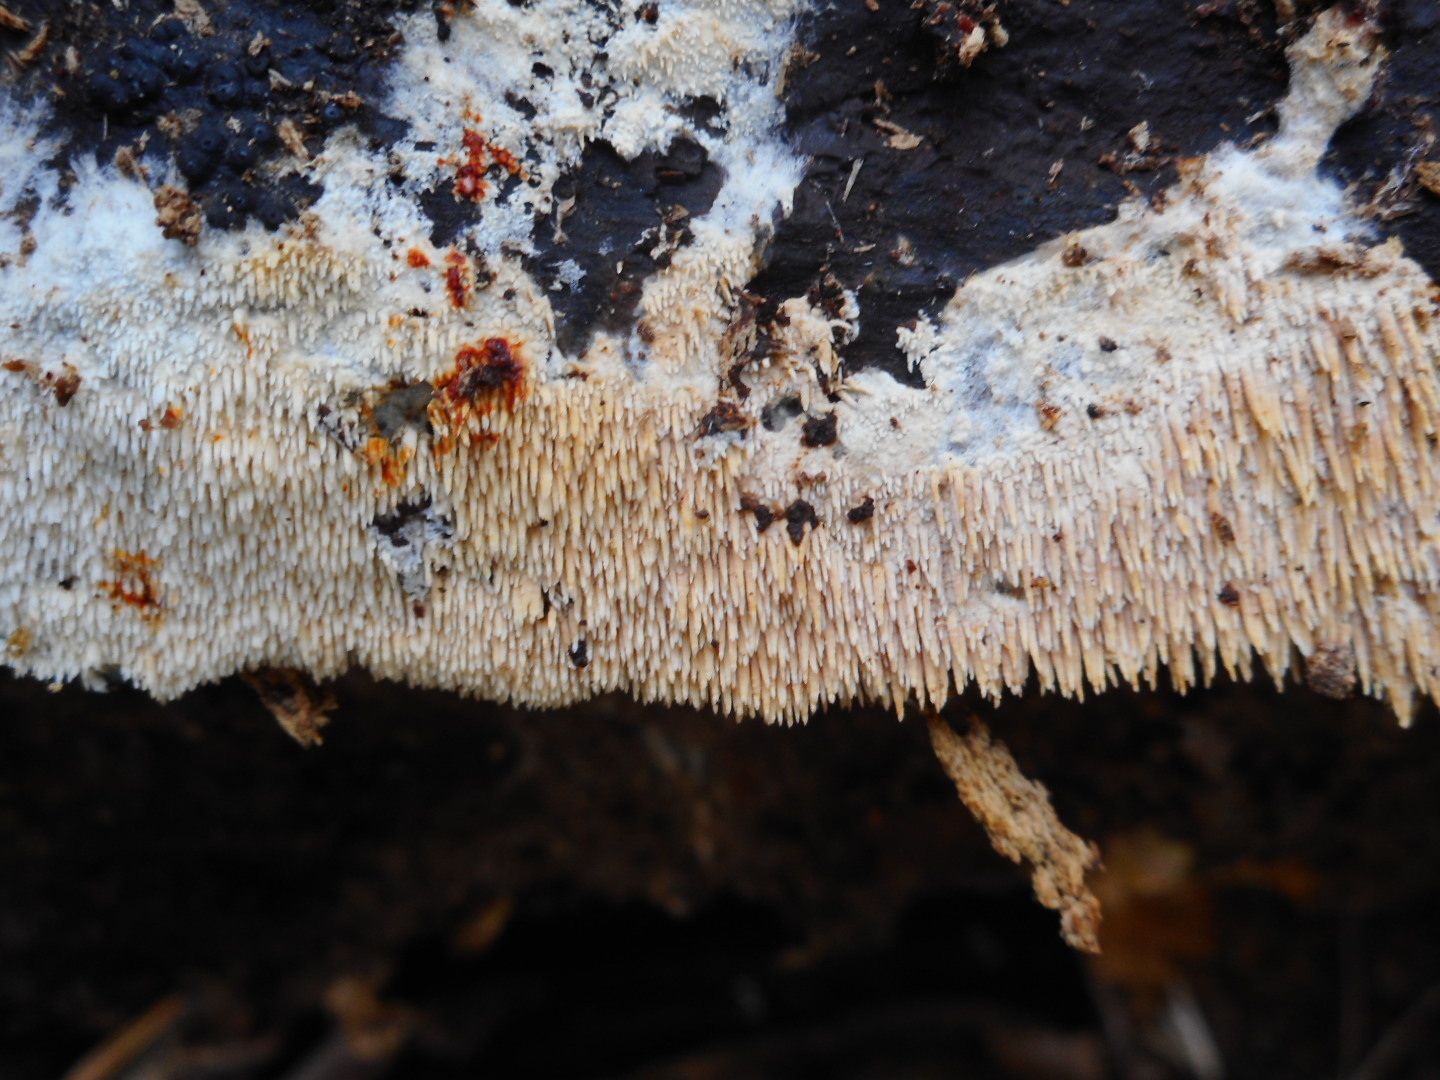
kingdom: Fungi
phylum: Basidiomycota
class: Agaricomycetes
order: Gomphales
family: Lentariaceae
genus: Hydnocristella
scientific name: Hydnocristella himantia
